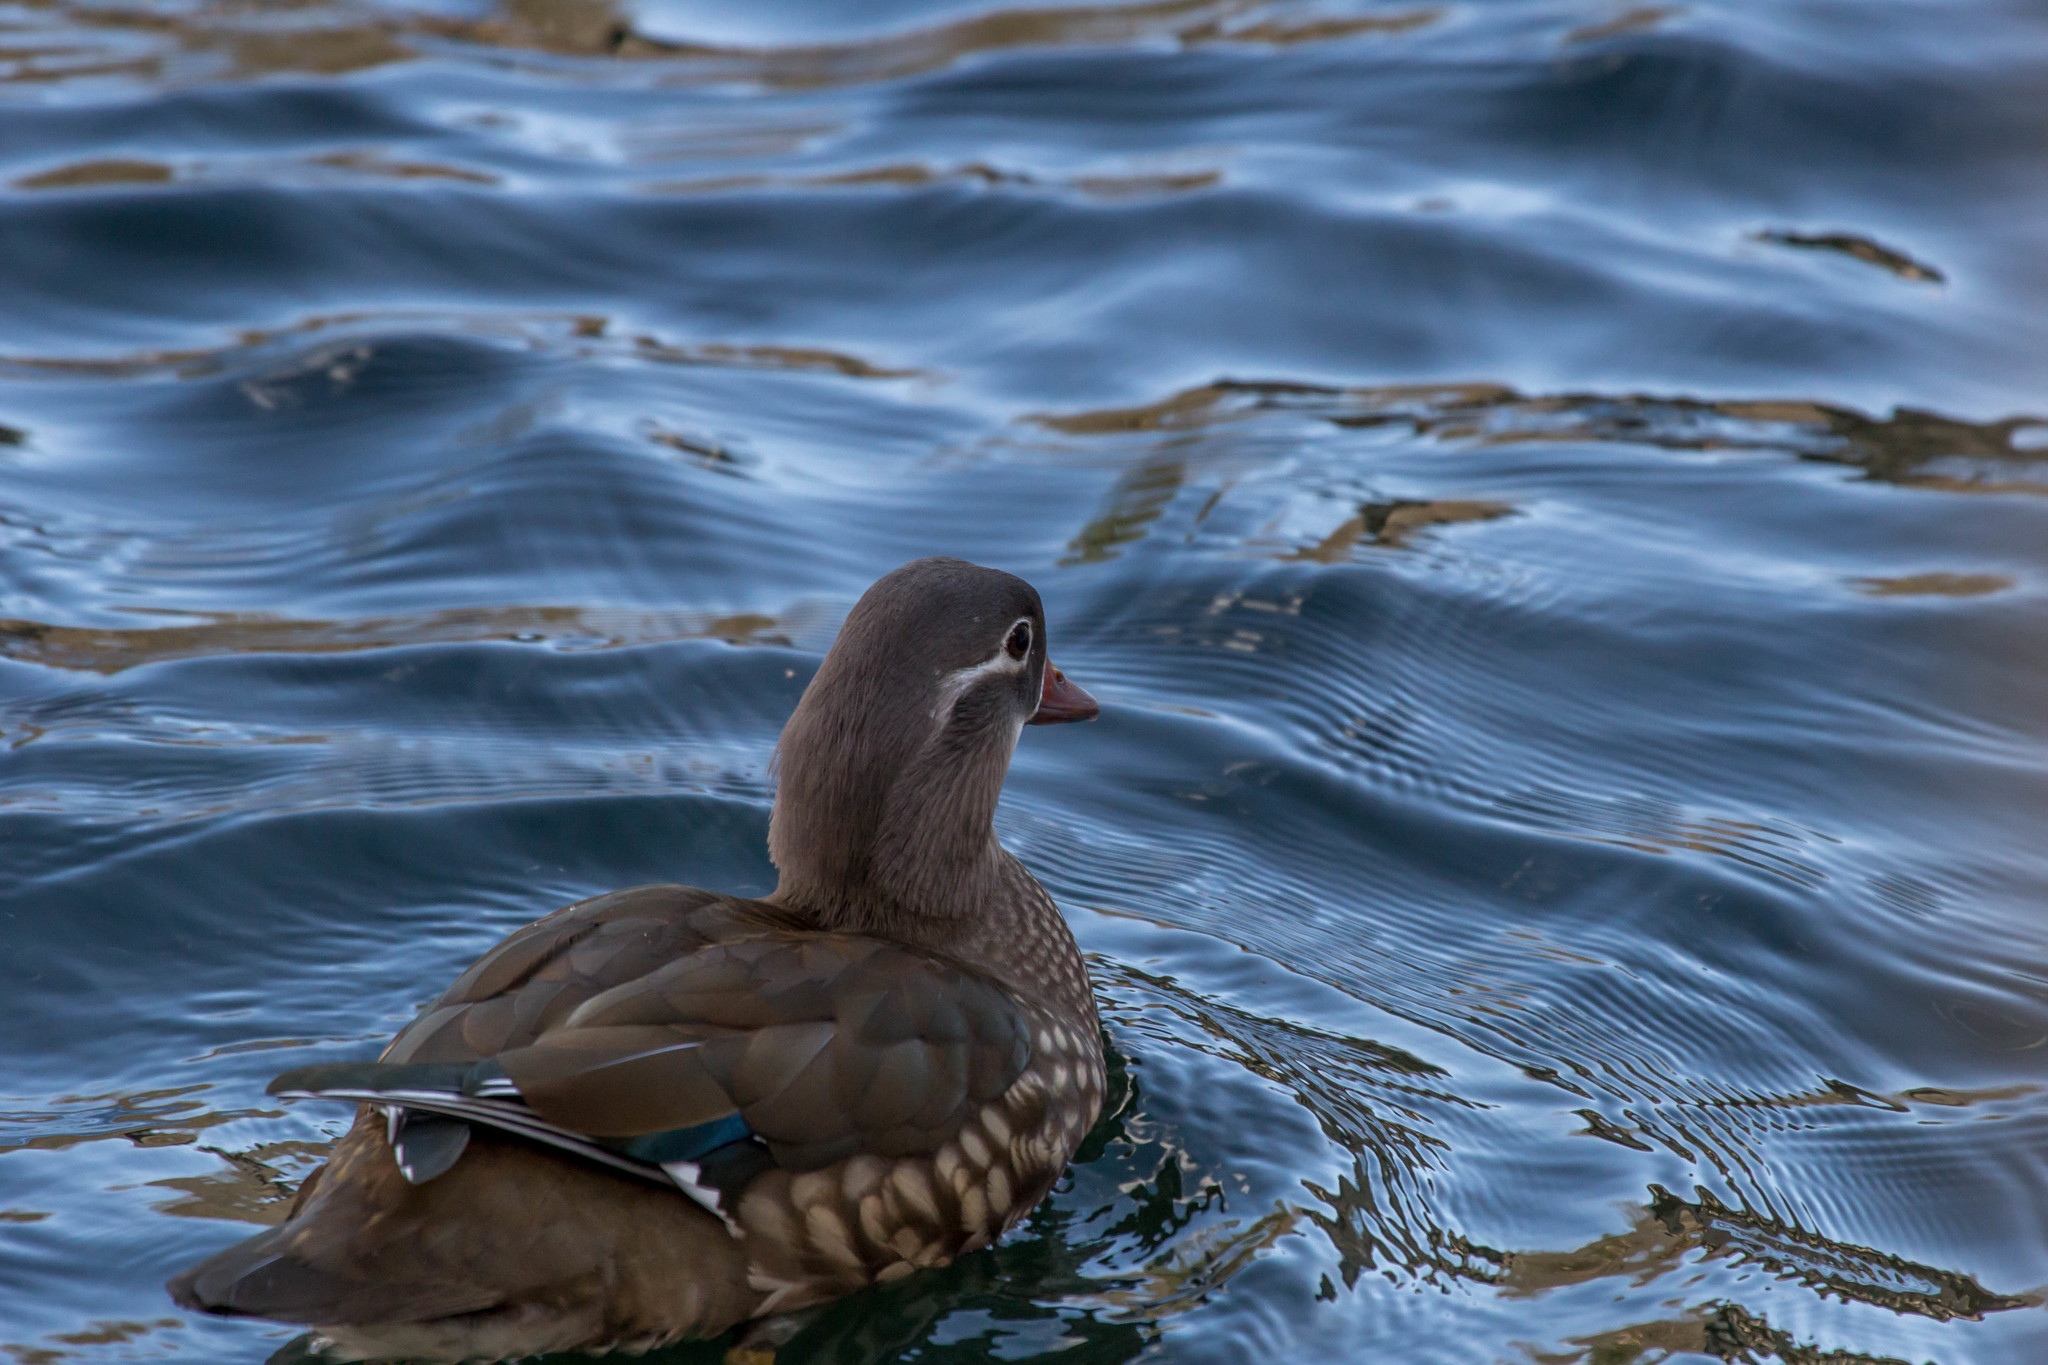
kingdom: Animalia
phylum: Chordata
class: Aves
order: Anseriformes
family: Anatidae
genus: Aix
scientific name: Aix galericulata
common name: Mandarin duck
